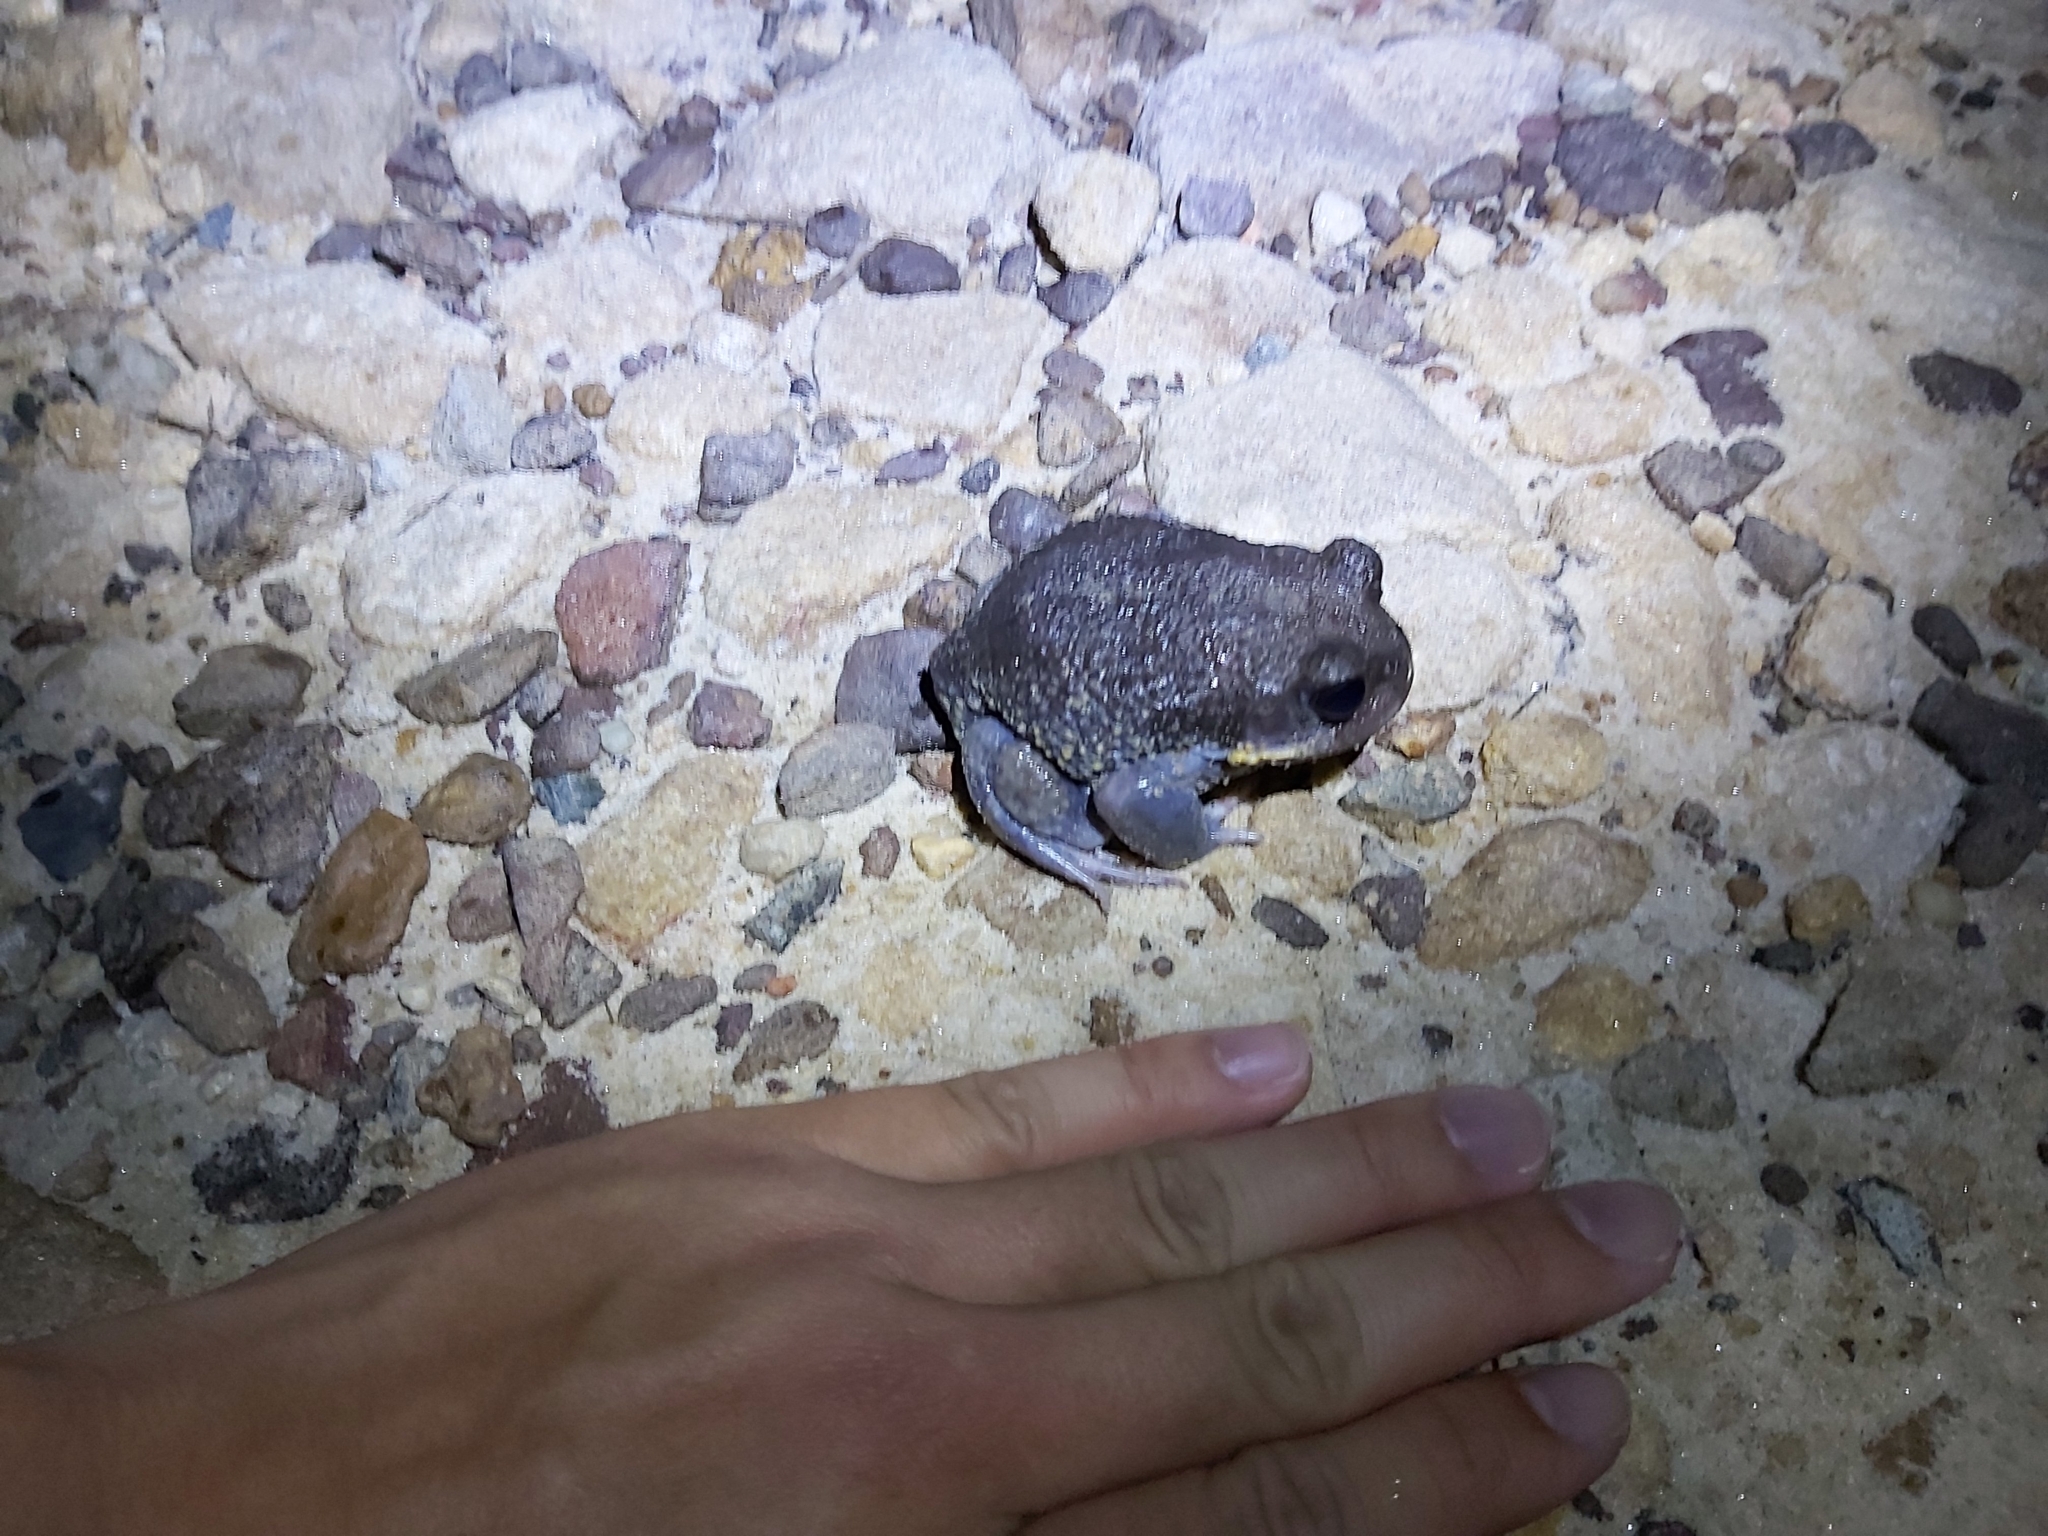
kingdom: Animalia
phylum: Chordata
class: Amphibia
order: Anura
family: Limnodynastidae
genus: Heleioporus
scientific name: Heleioporus australiacus
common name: Eastern owl frog
